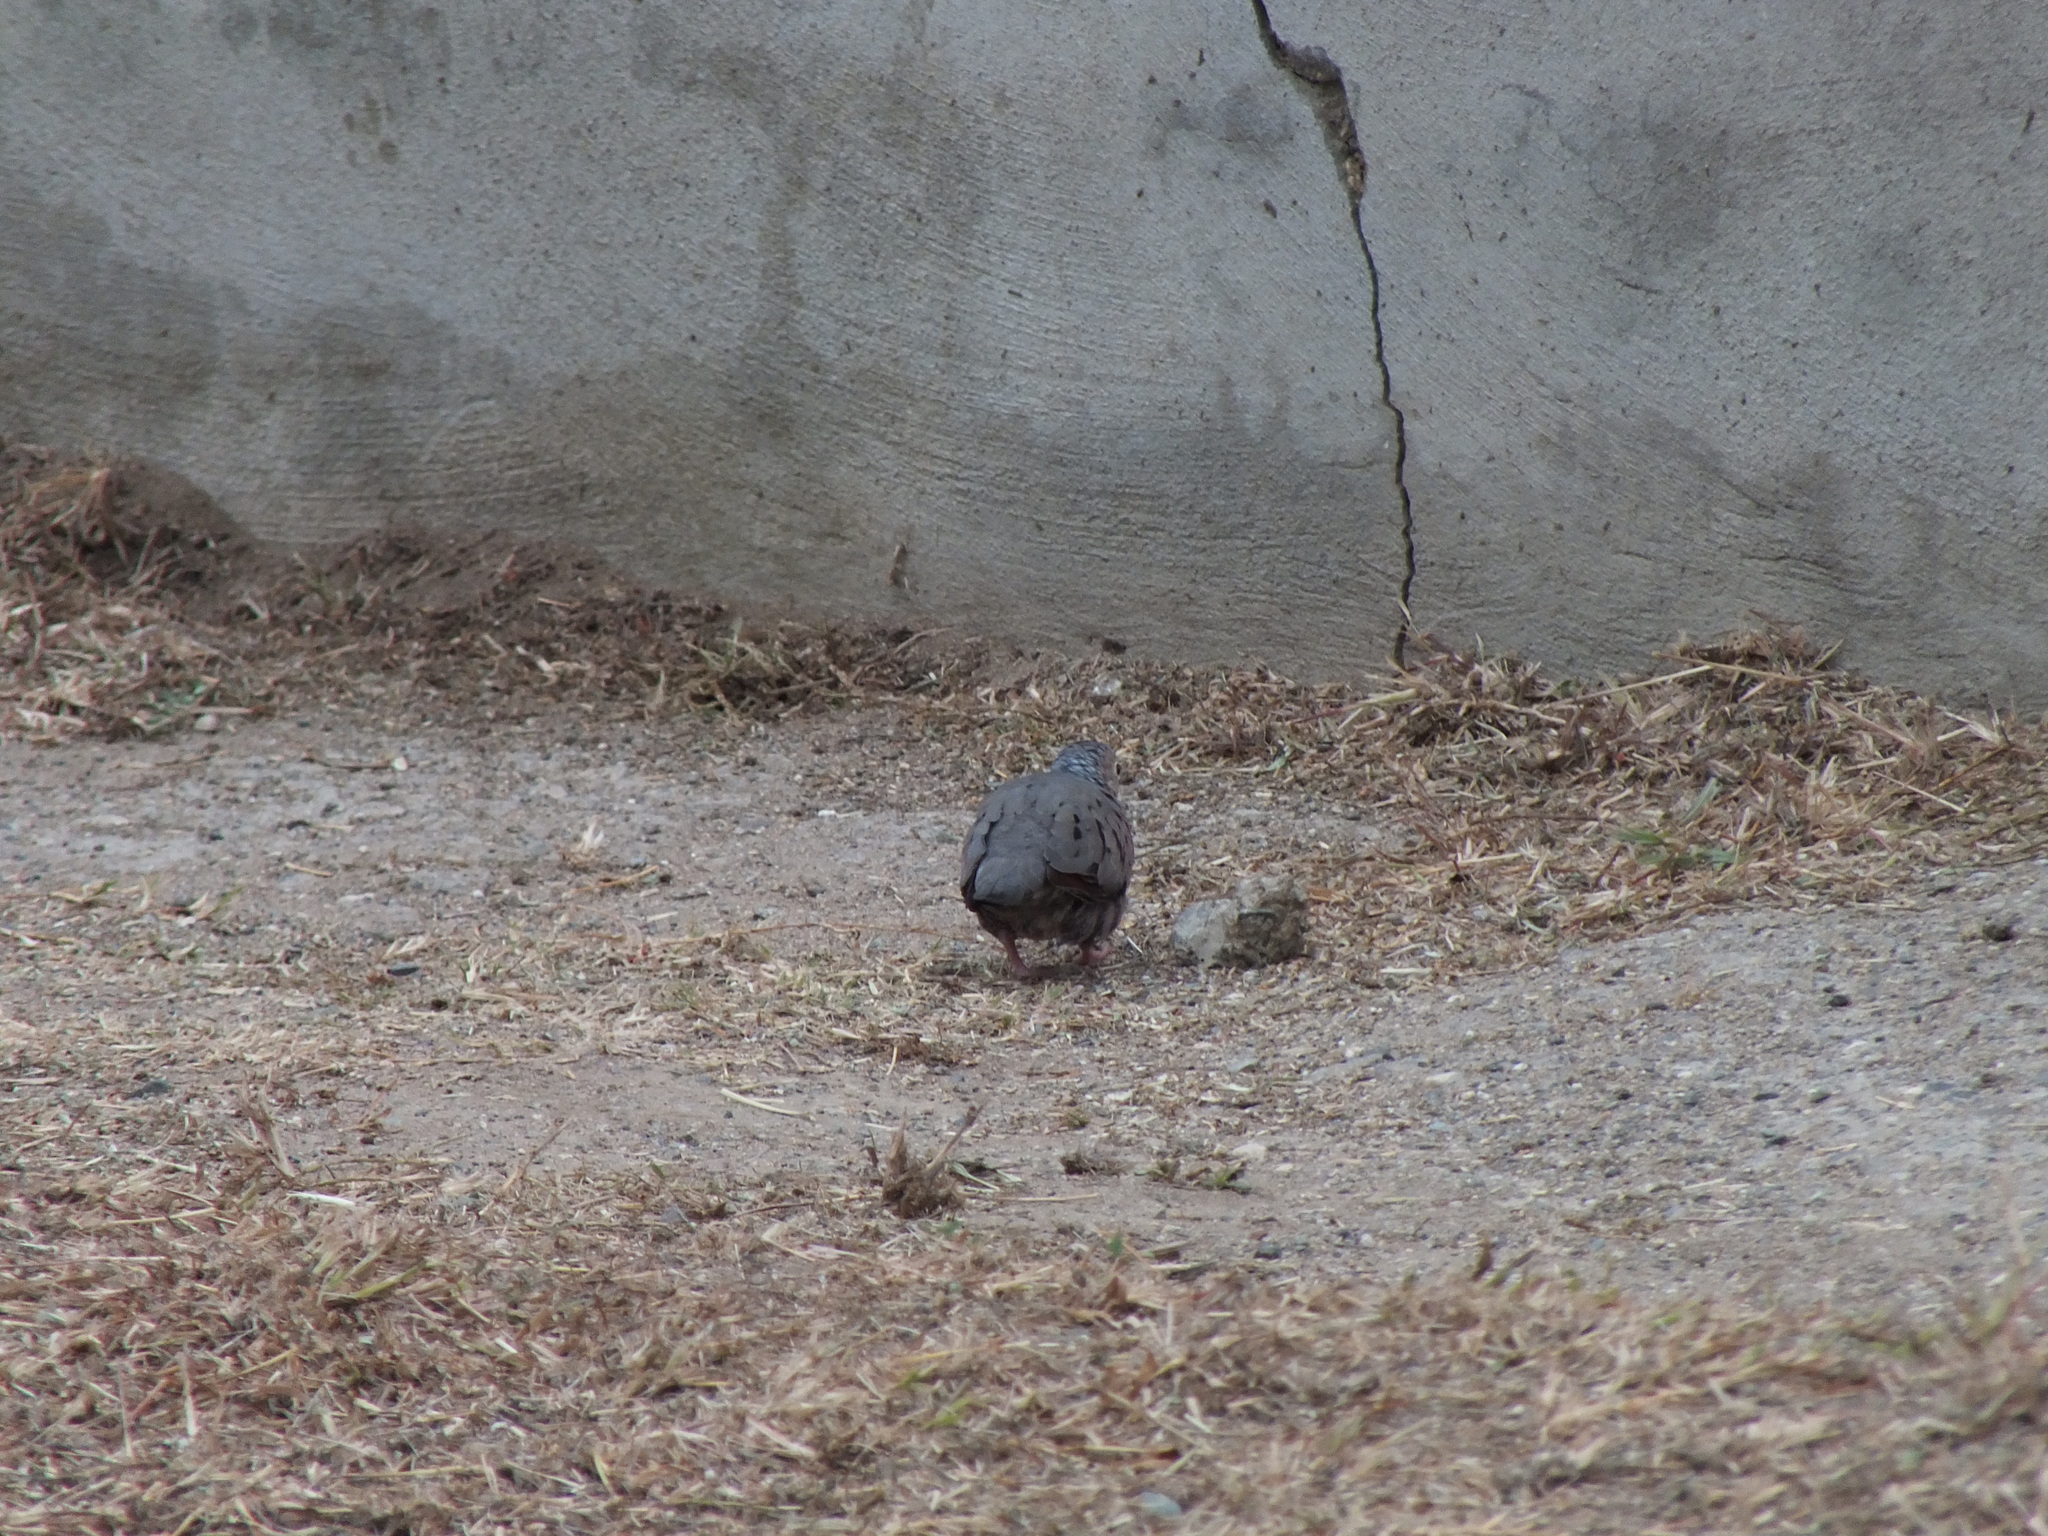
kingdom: Animalia
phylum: Chordata
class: Aves
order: Columbiformes
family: Columbidae
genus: Columbina
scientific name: Columbina passerina
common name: Common ground-dove
